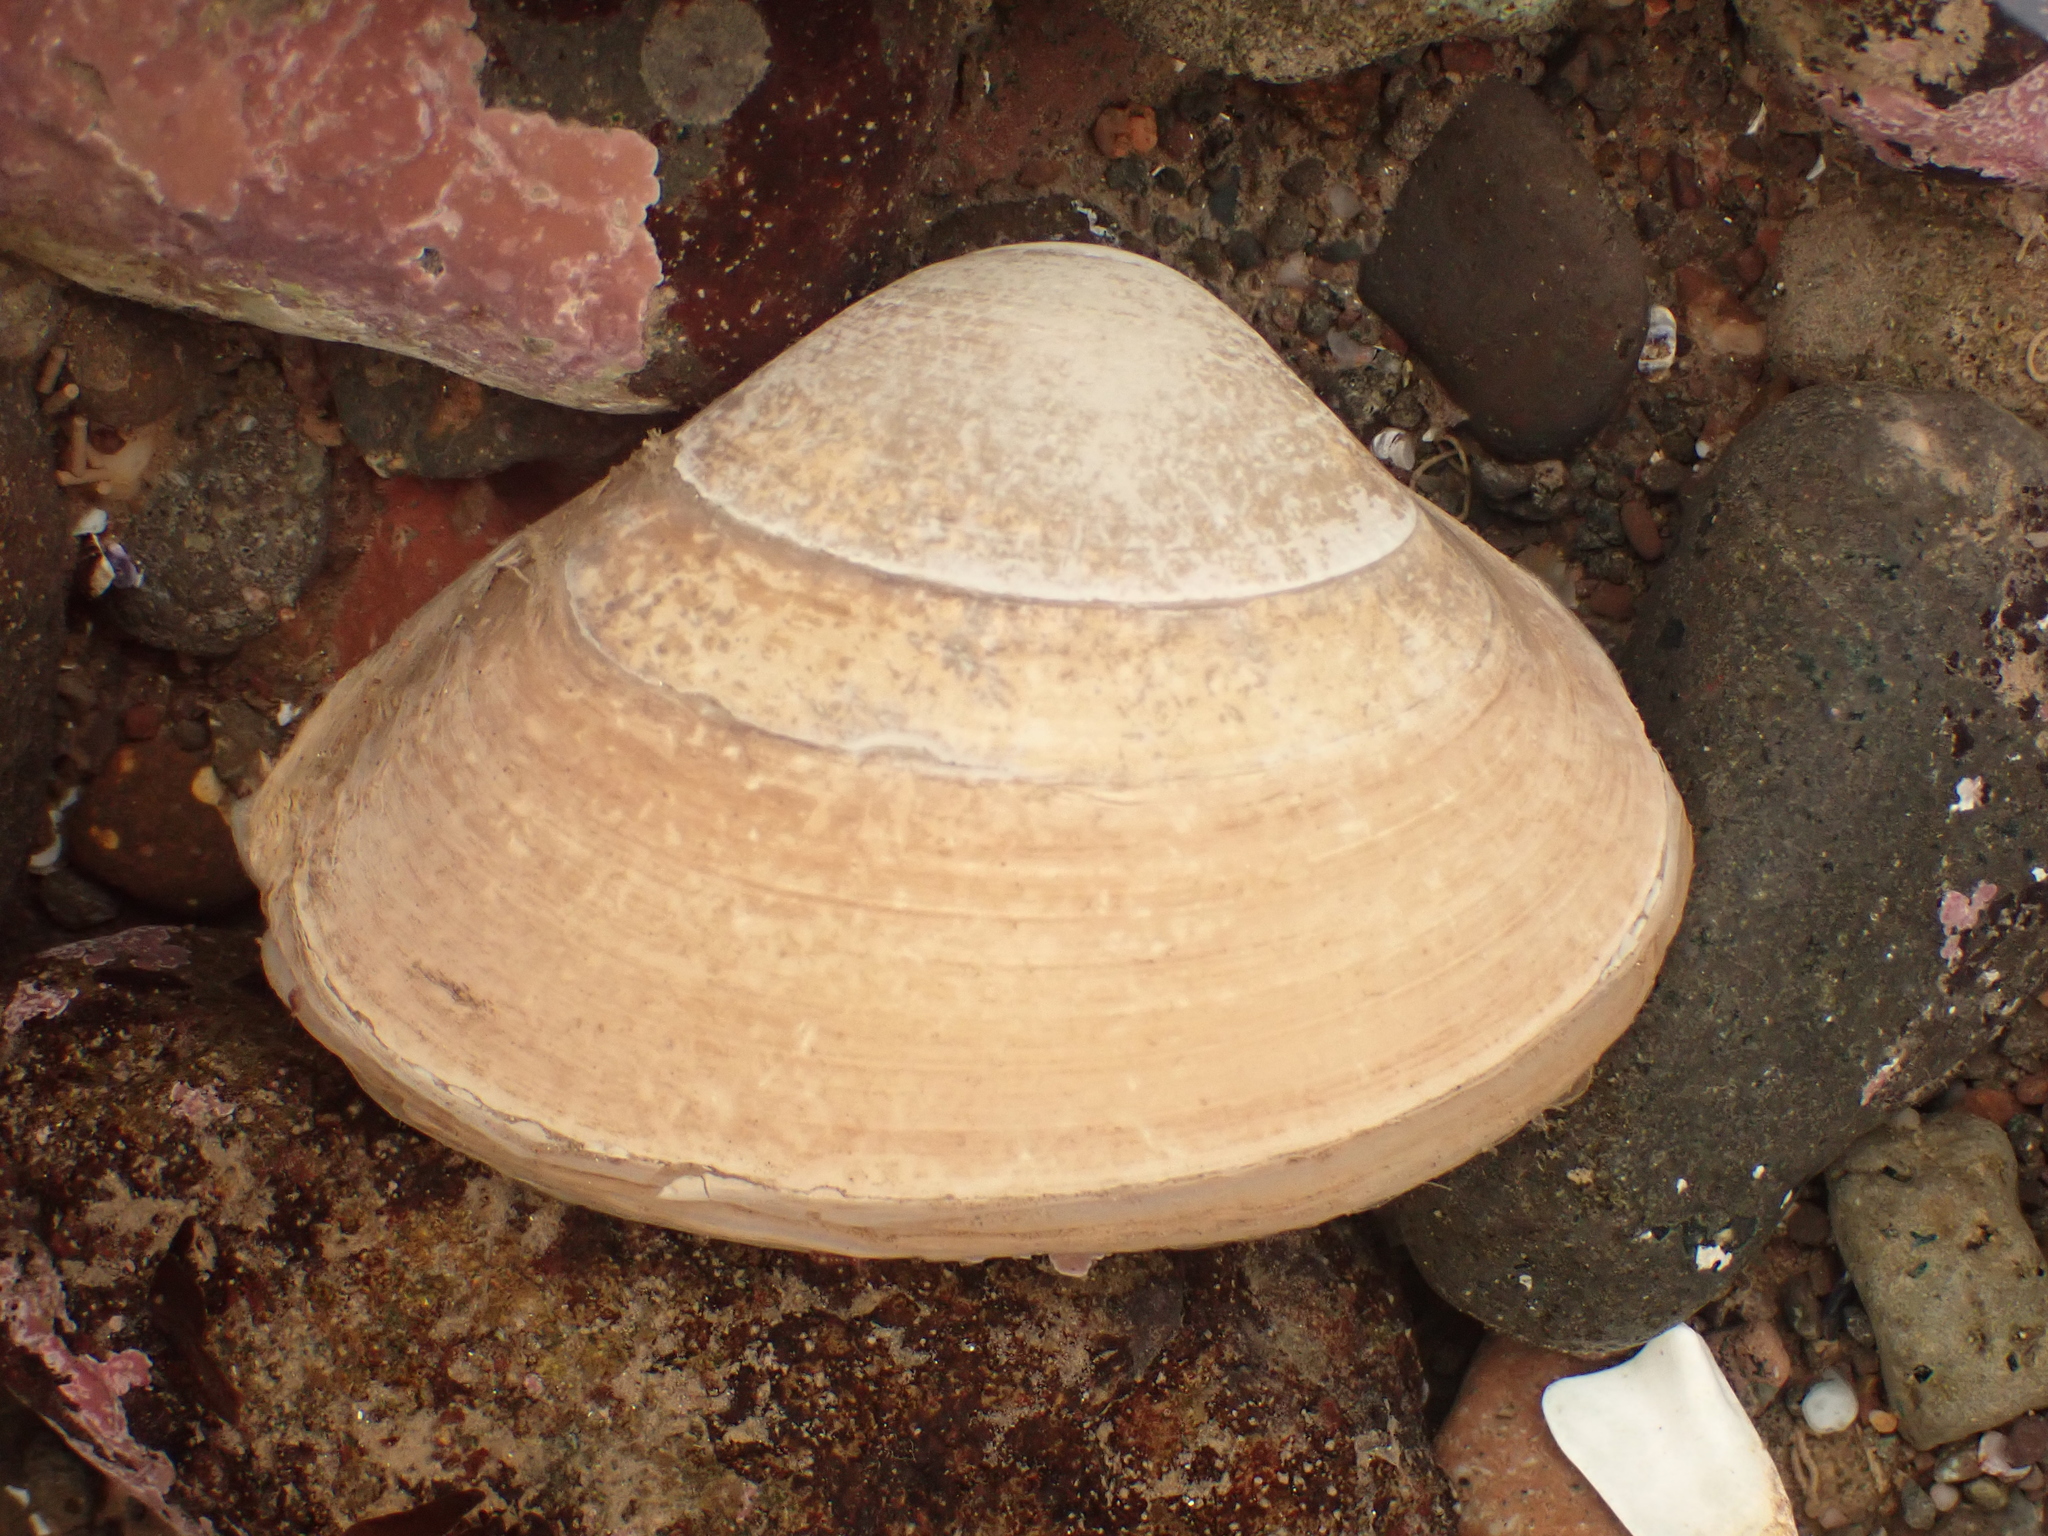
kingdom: Animalia
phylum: Mollusca
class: Bivalvia
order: Venerida
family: Mactridae
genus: Spisula
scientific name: Spisula solidissima
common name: Atlantic surf clam
